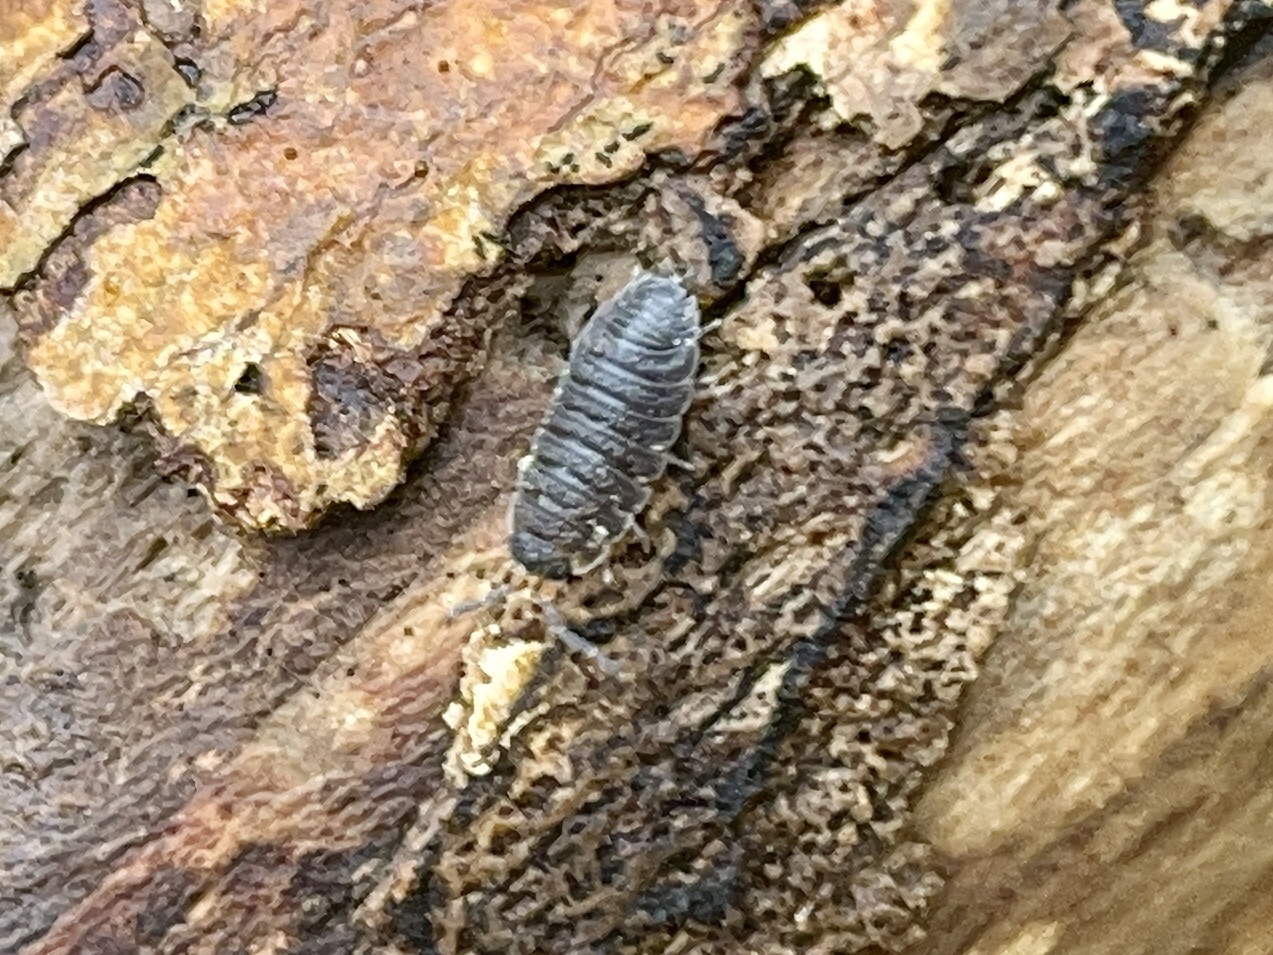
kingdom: Animalia
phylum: Arthropoda
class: Malacostraca
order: Isopoda
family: Porcellionidae
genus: Porcellio
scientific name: Porcellio scaber
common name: Common rough woodlouse
